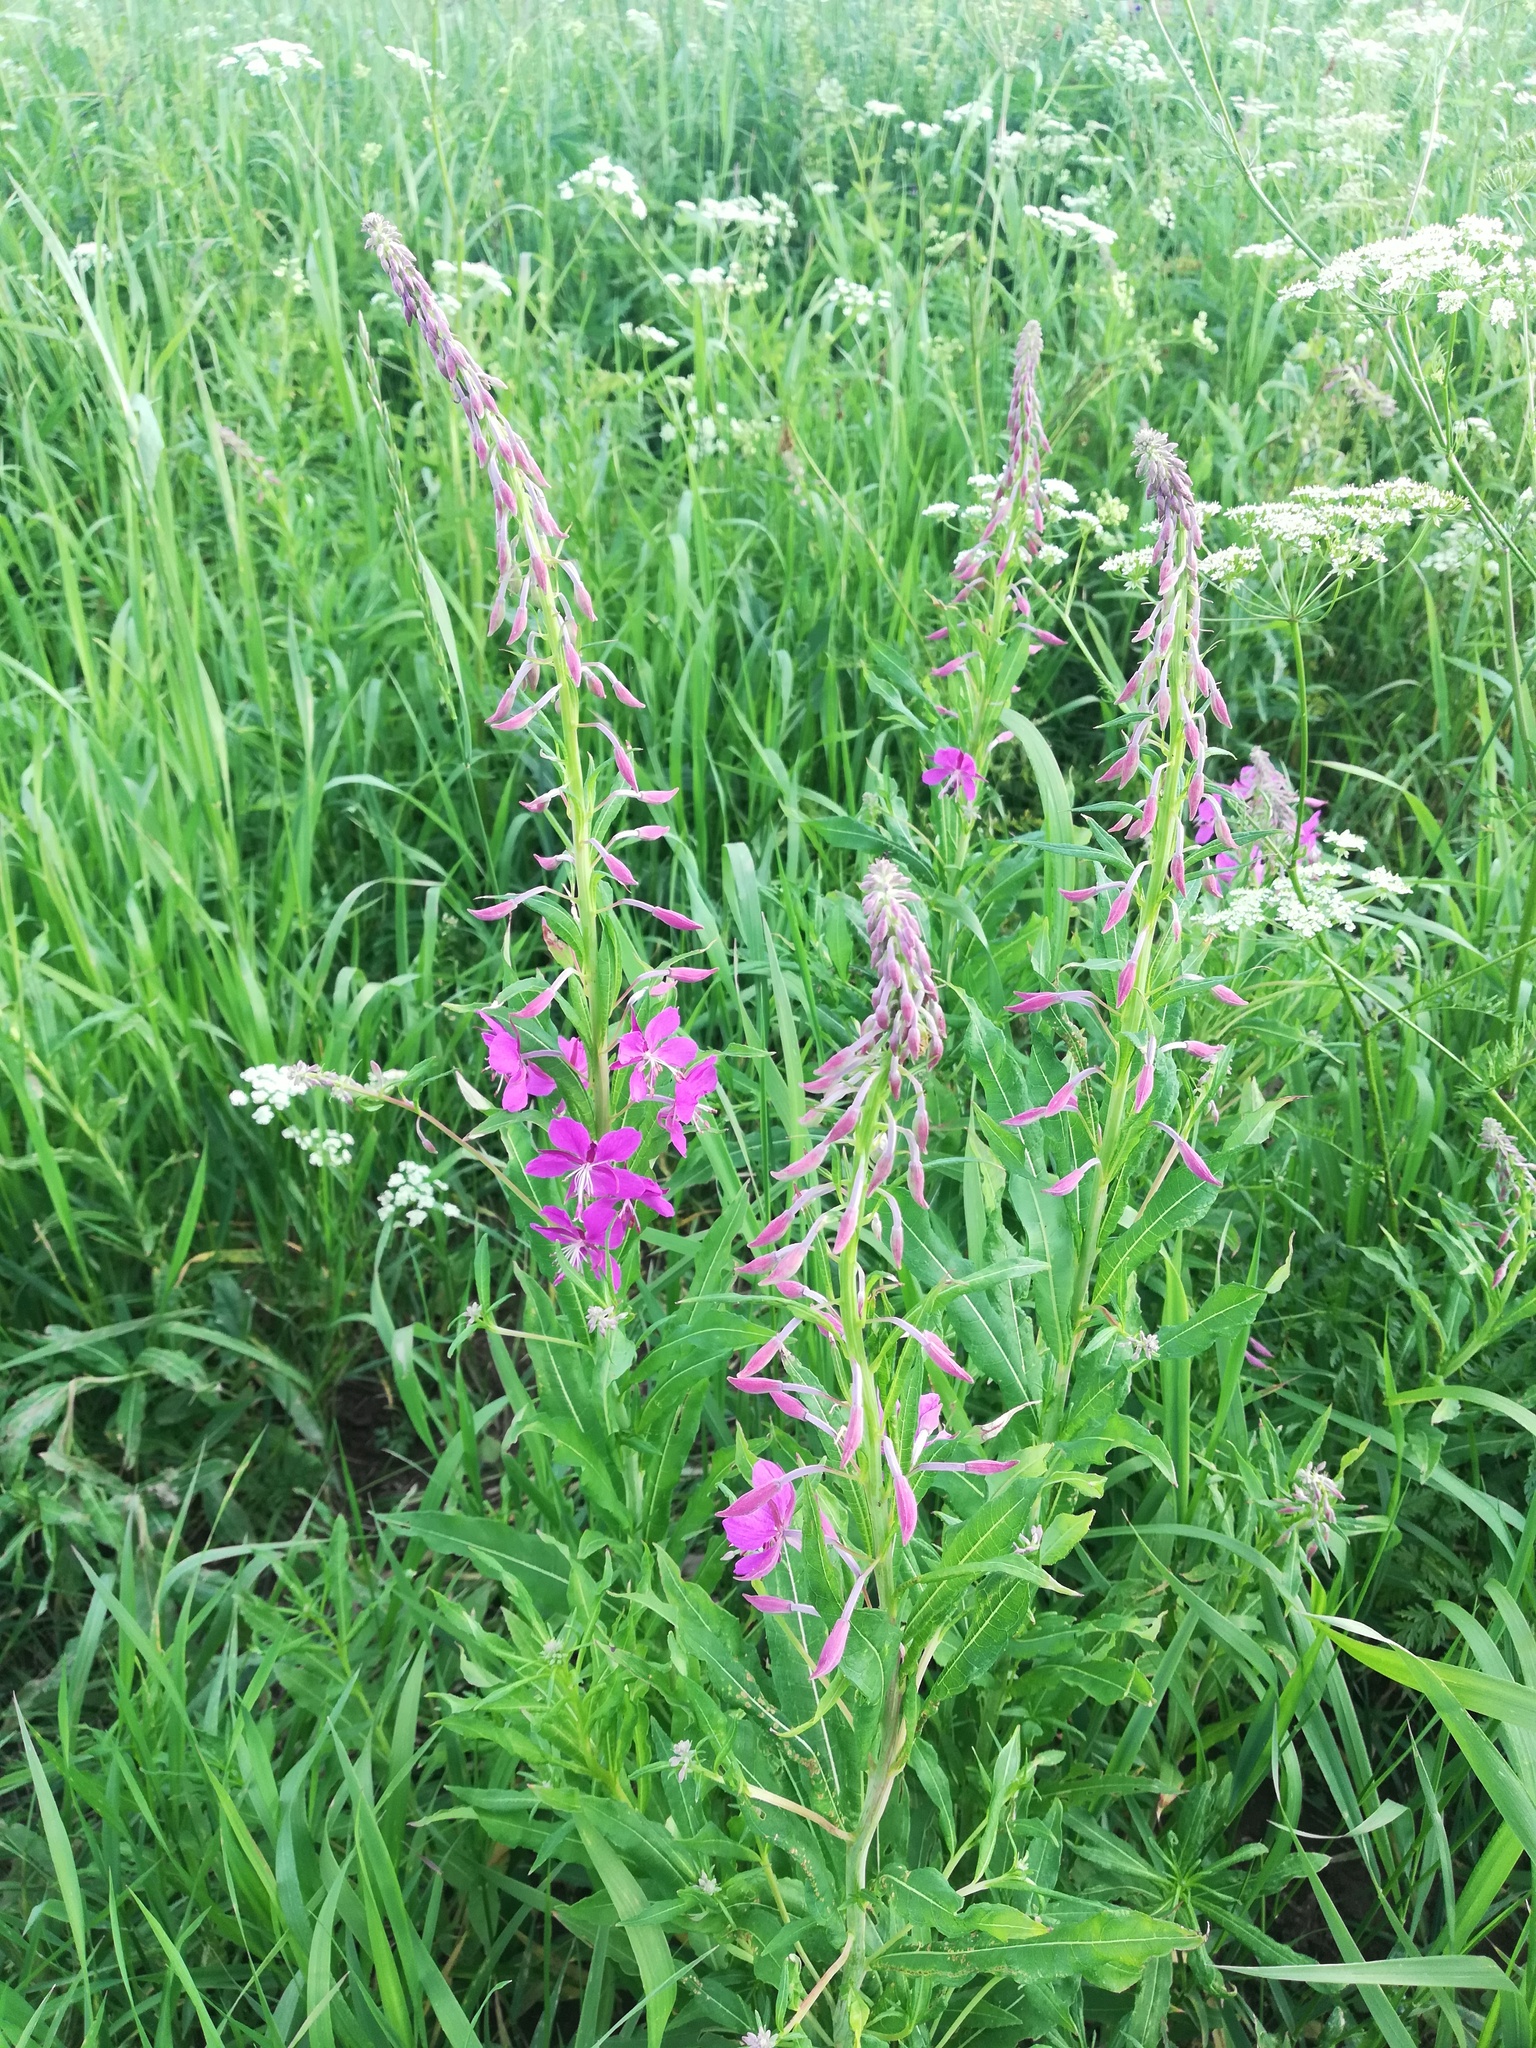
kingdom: Plantae
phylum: Tracheophyta
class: Magnoliopsida
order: Myrtales
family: Onagraceae
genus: Chamaenerion
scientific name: Chamaenerion angustifolium
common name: Fireweed
